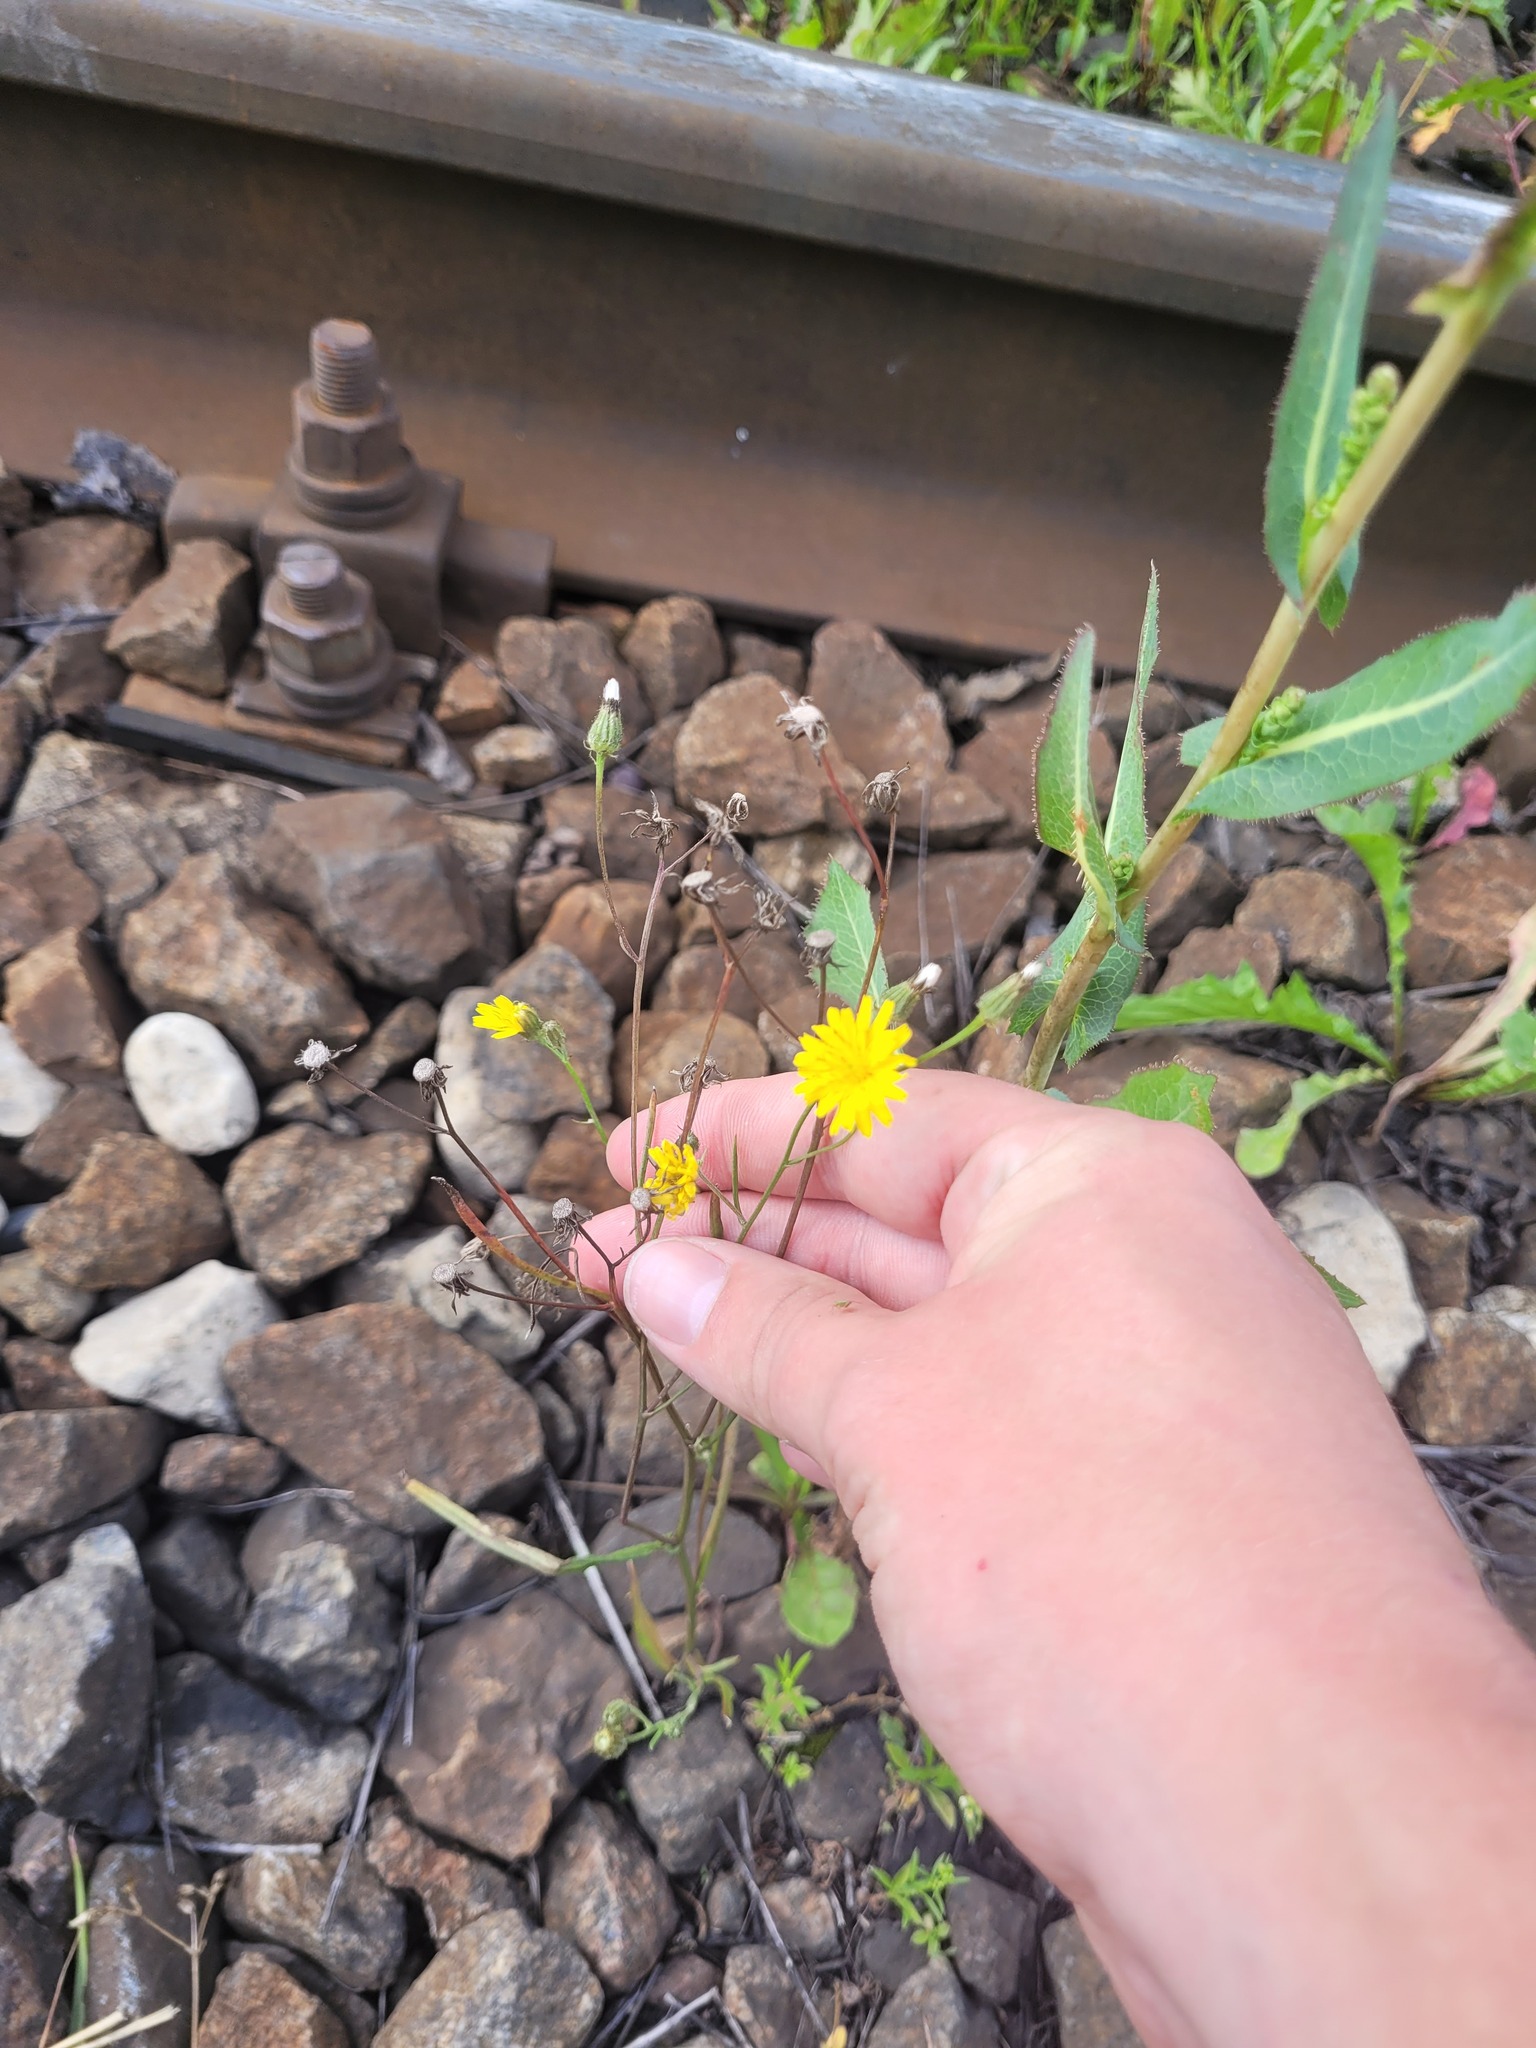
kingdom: Plantae
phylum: Tracheophyta
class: Magnoliopsida
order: Asterales
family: Asteraceae
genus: Crepis
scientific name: Crepis tectorum
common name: Narrow-leaved hawk's-beard
